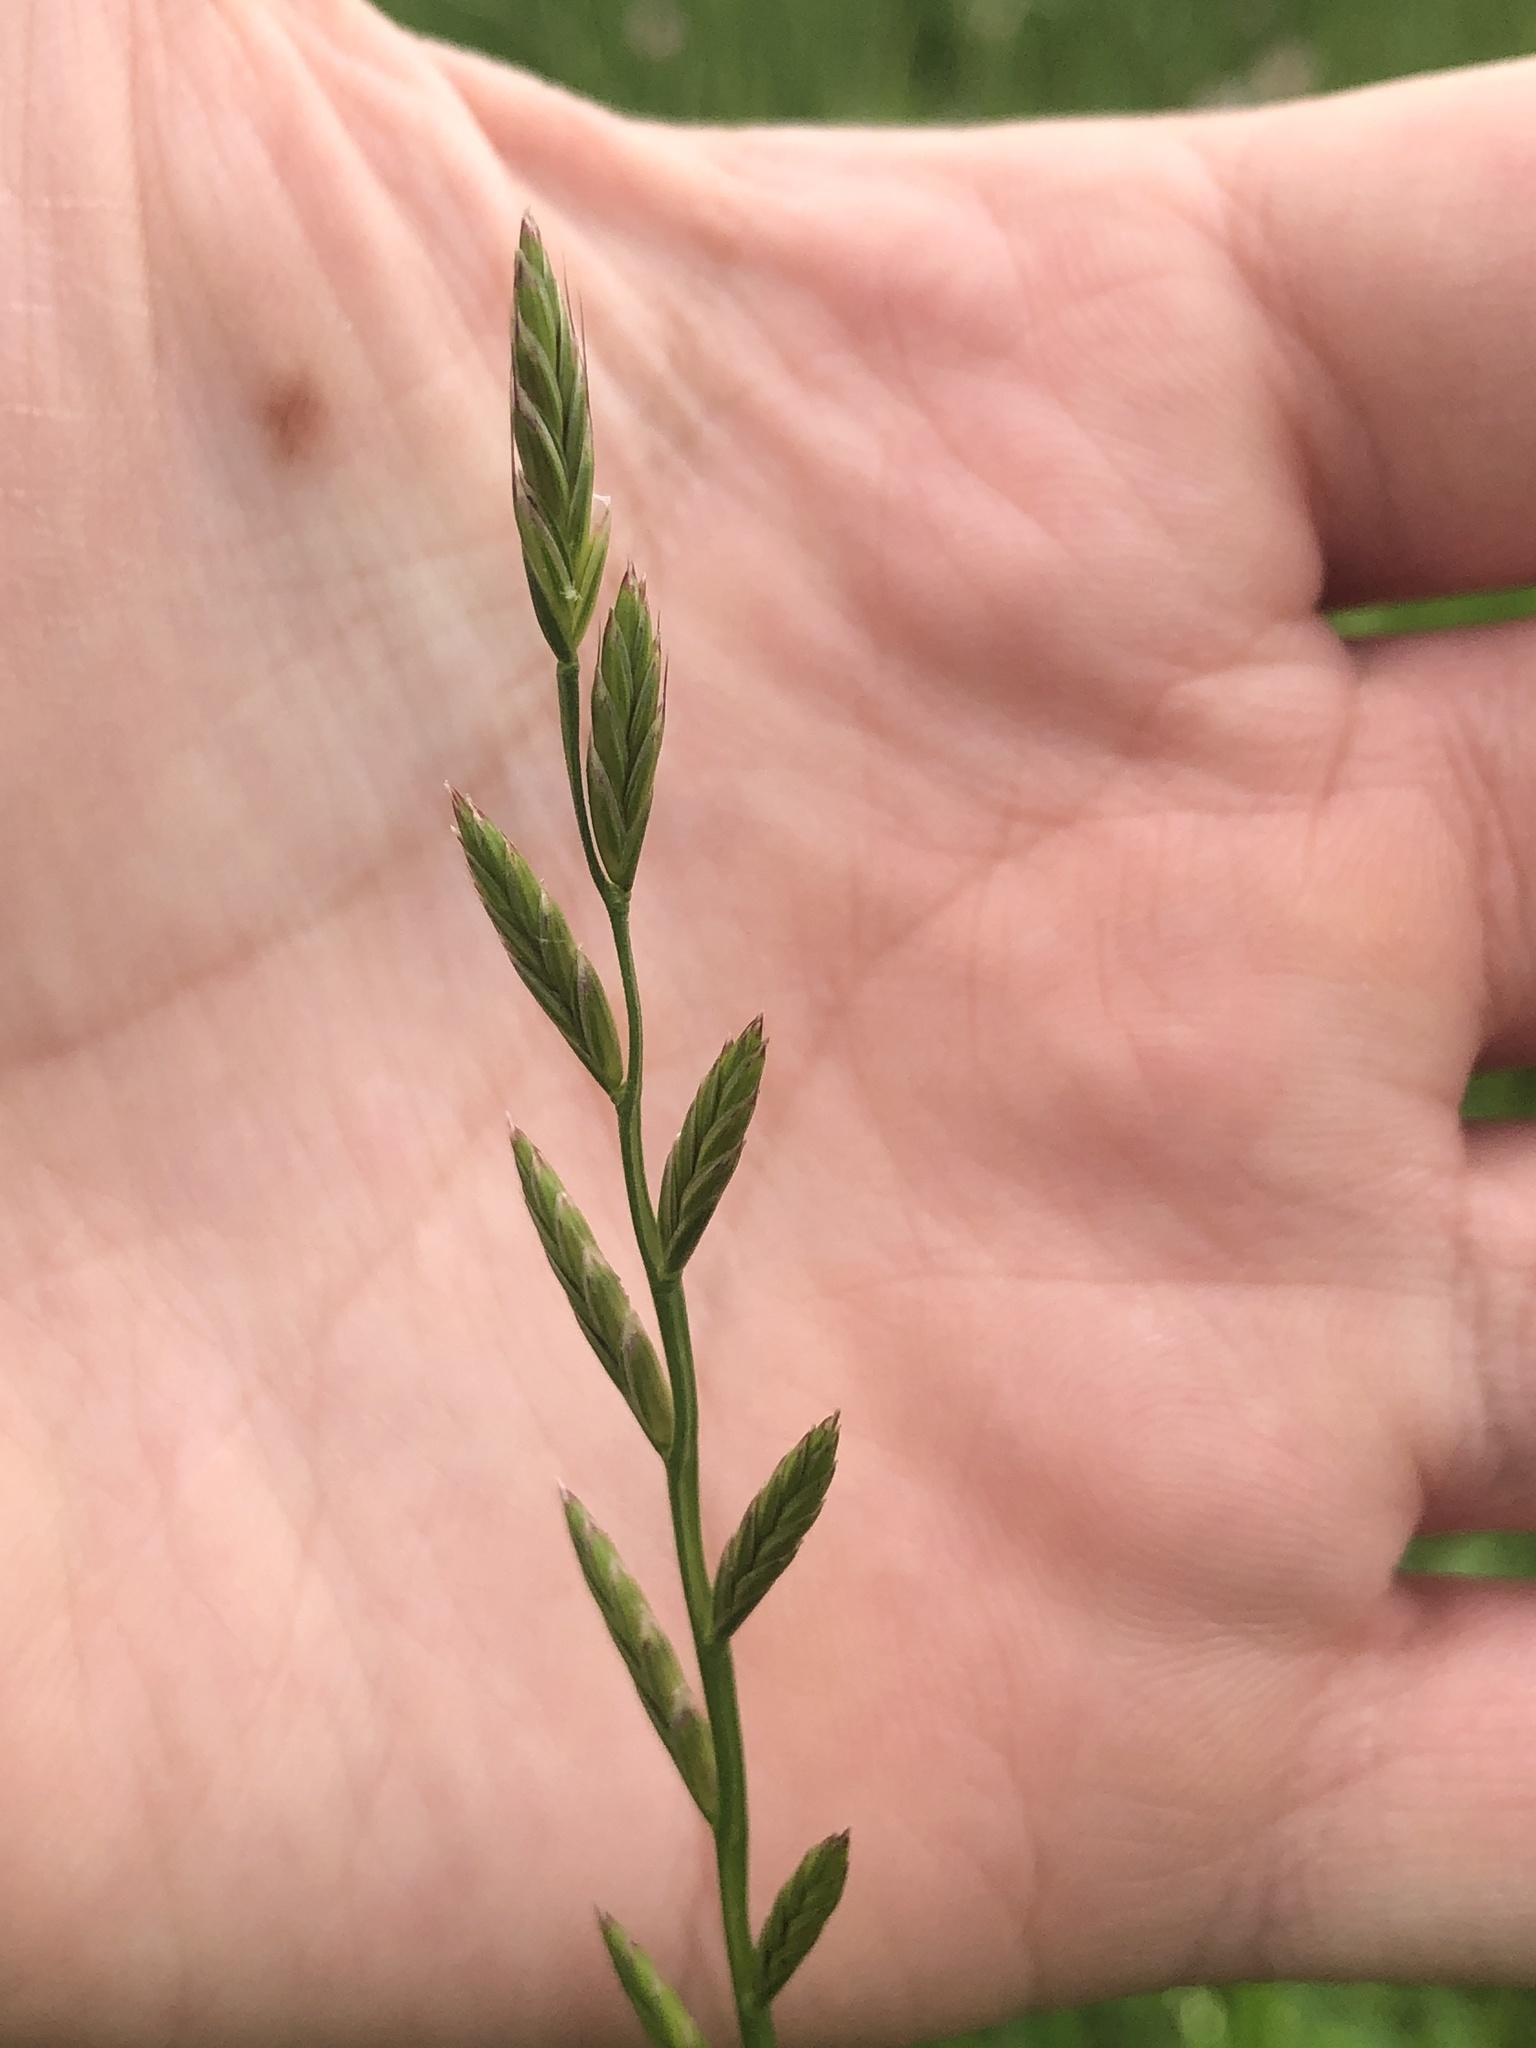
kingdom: Plantae
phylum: Tracheophyta
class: Liliopsida
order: Poales
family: Poaceae
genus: Lolium
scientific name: Lolium perenne
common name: Perennial ryegrass
